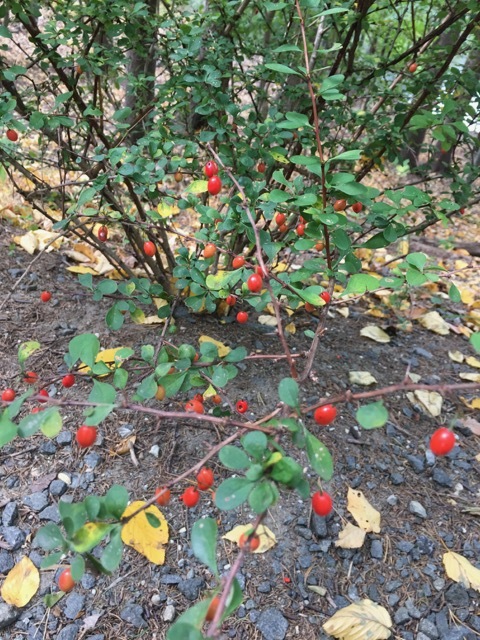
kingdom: Plantae
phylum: Tracheophyta
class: Magnoliopsida
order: Ranunculales
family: Berberidaceae
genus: Berberis
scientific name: Berberis thunbergii
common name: Japanese barberry
